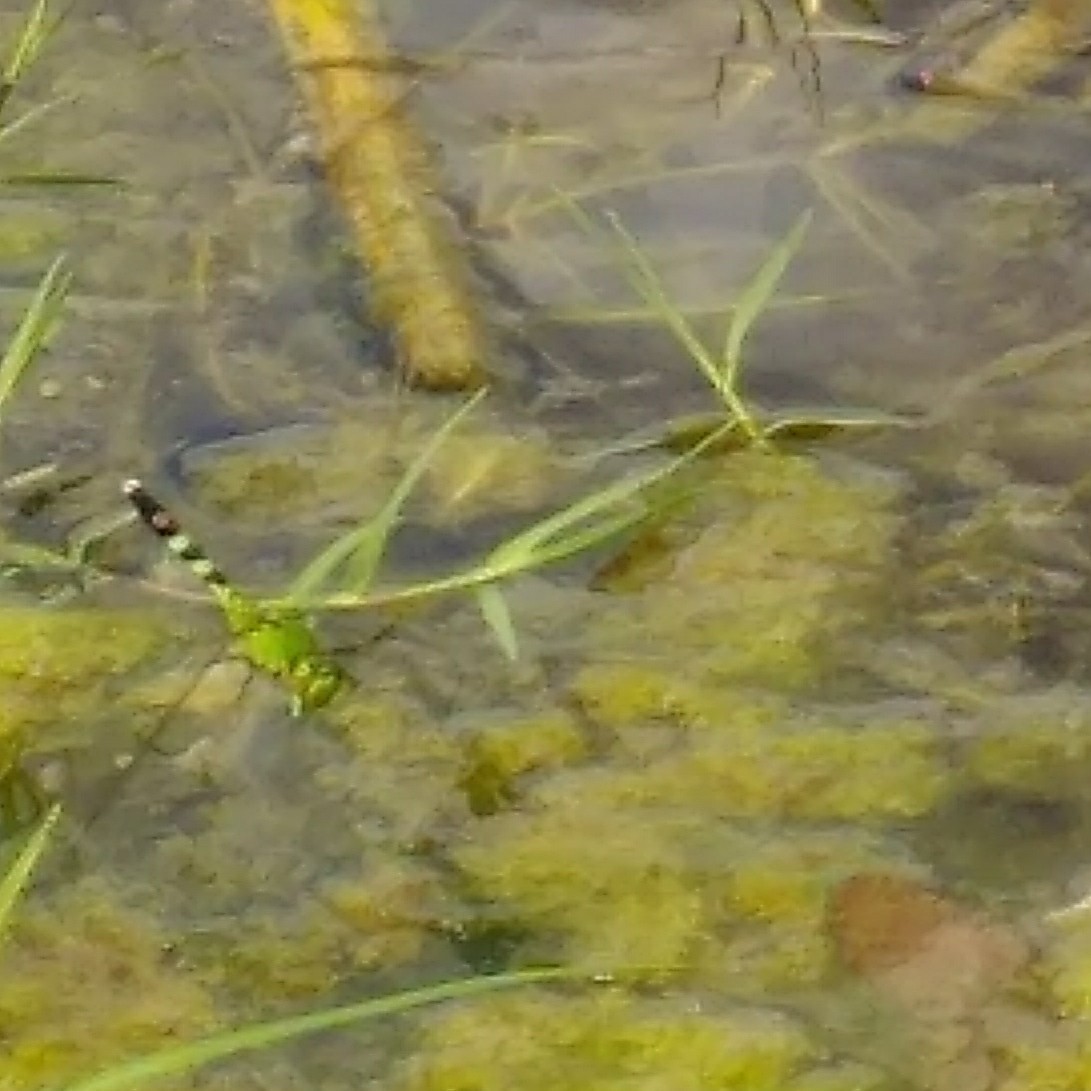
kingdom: Animalia
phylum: Arthropoda
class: Insecta
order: Odonata
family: Libellulidae
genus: Erythemis
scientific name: Erythemis simplicicollis
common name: Eastern pondhawk
